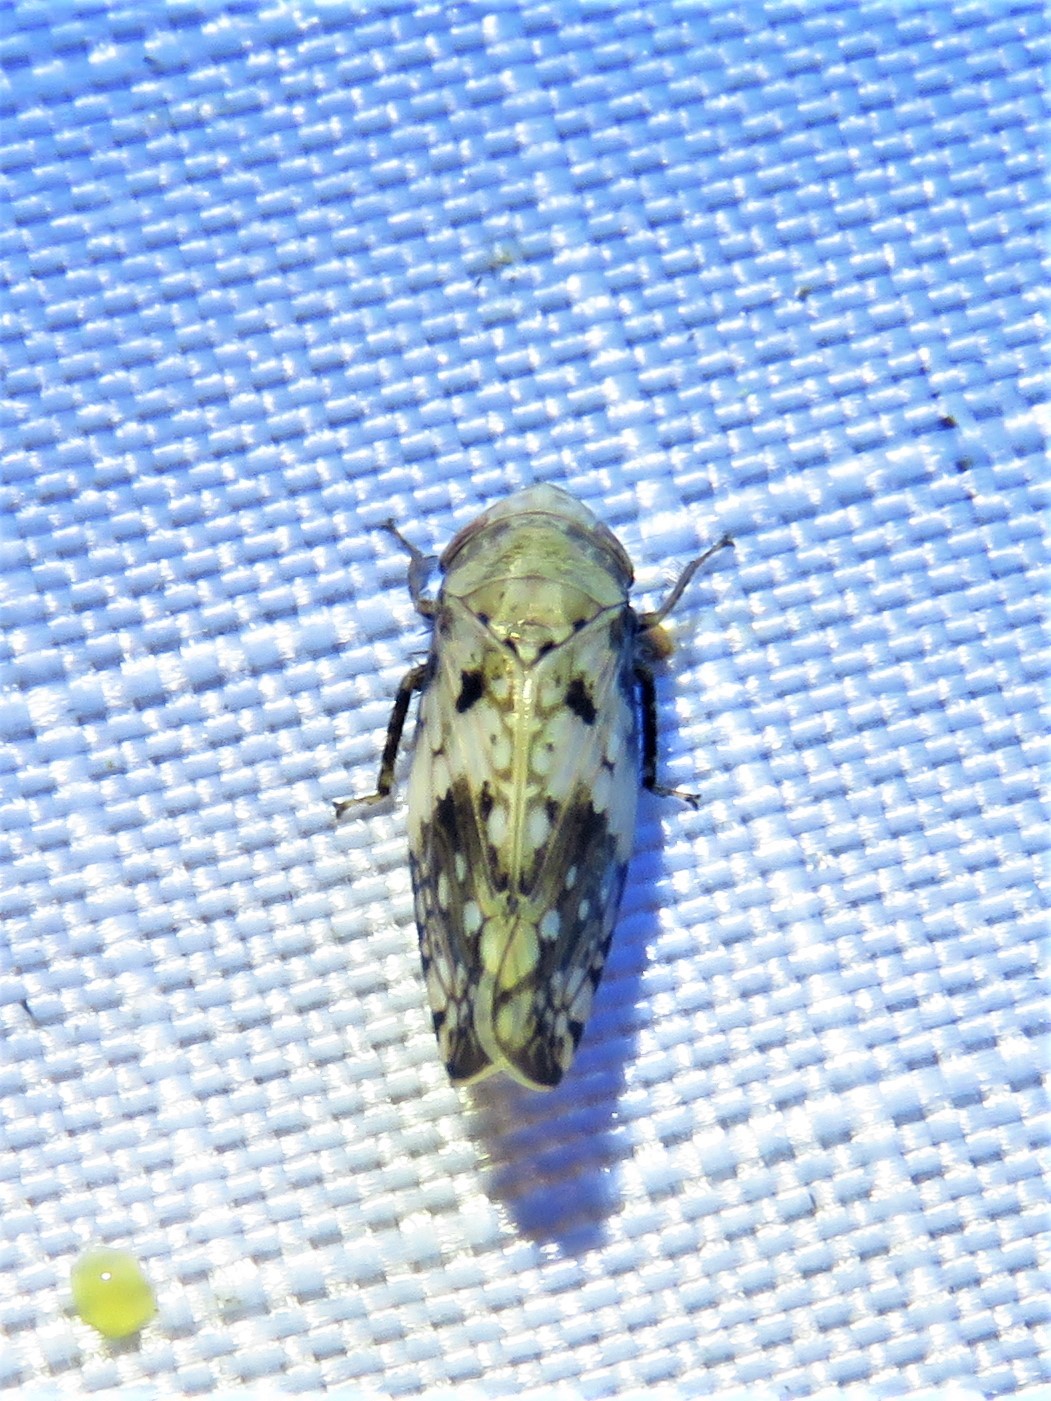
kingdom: Animalia
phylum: Arthropoda
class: Insecta
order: Hemiptera
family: Cicadellidae
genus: Menosoma
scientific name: Menosoma cinctum
